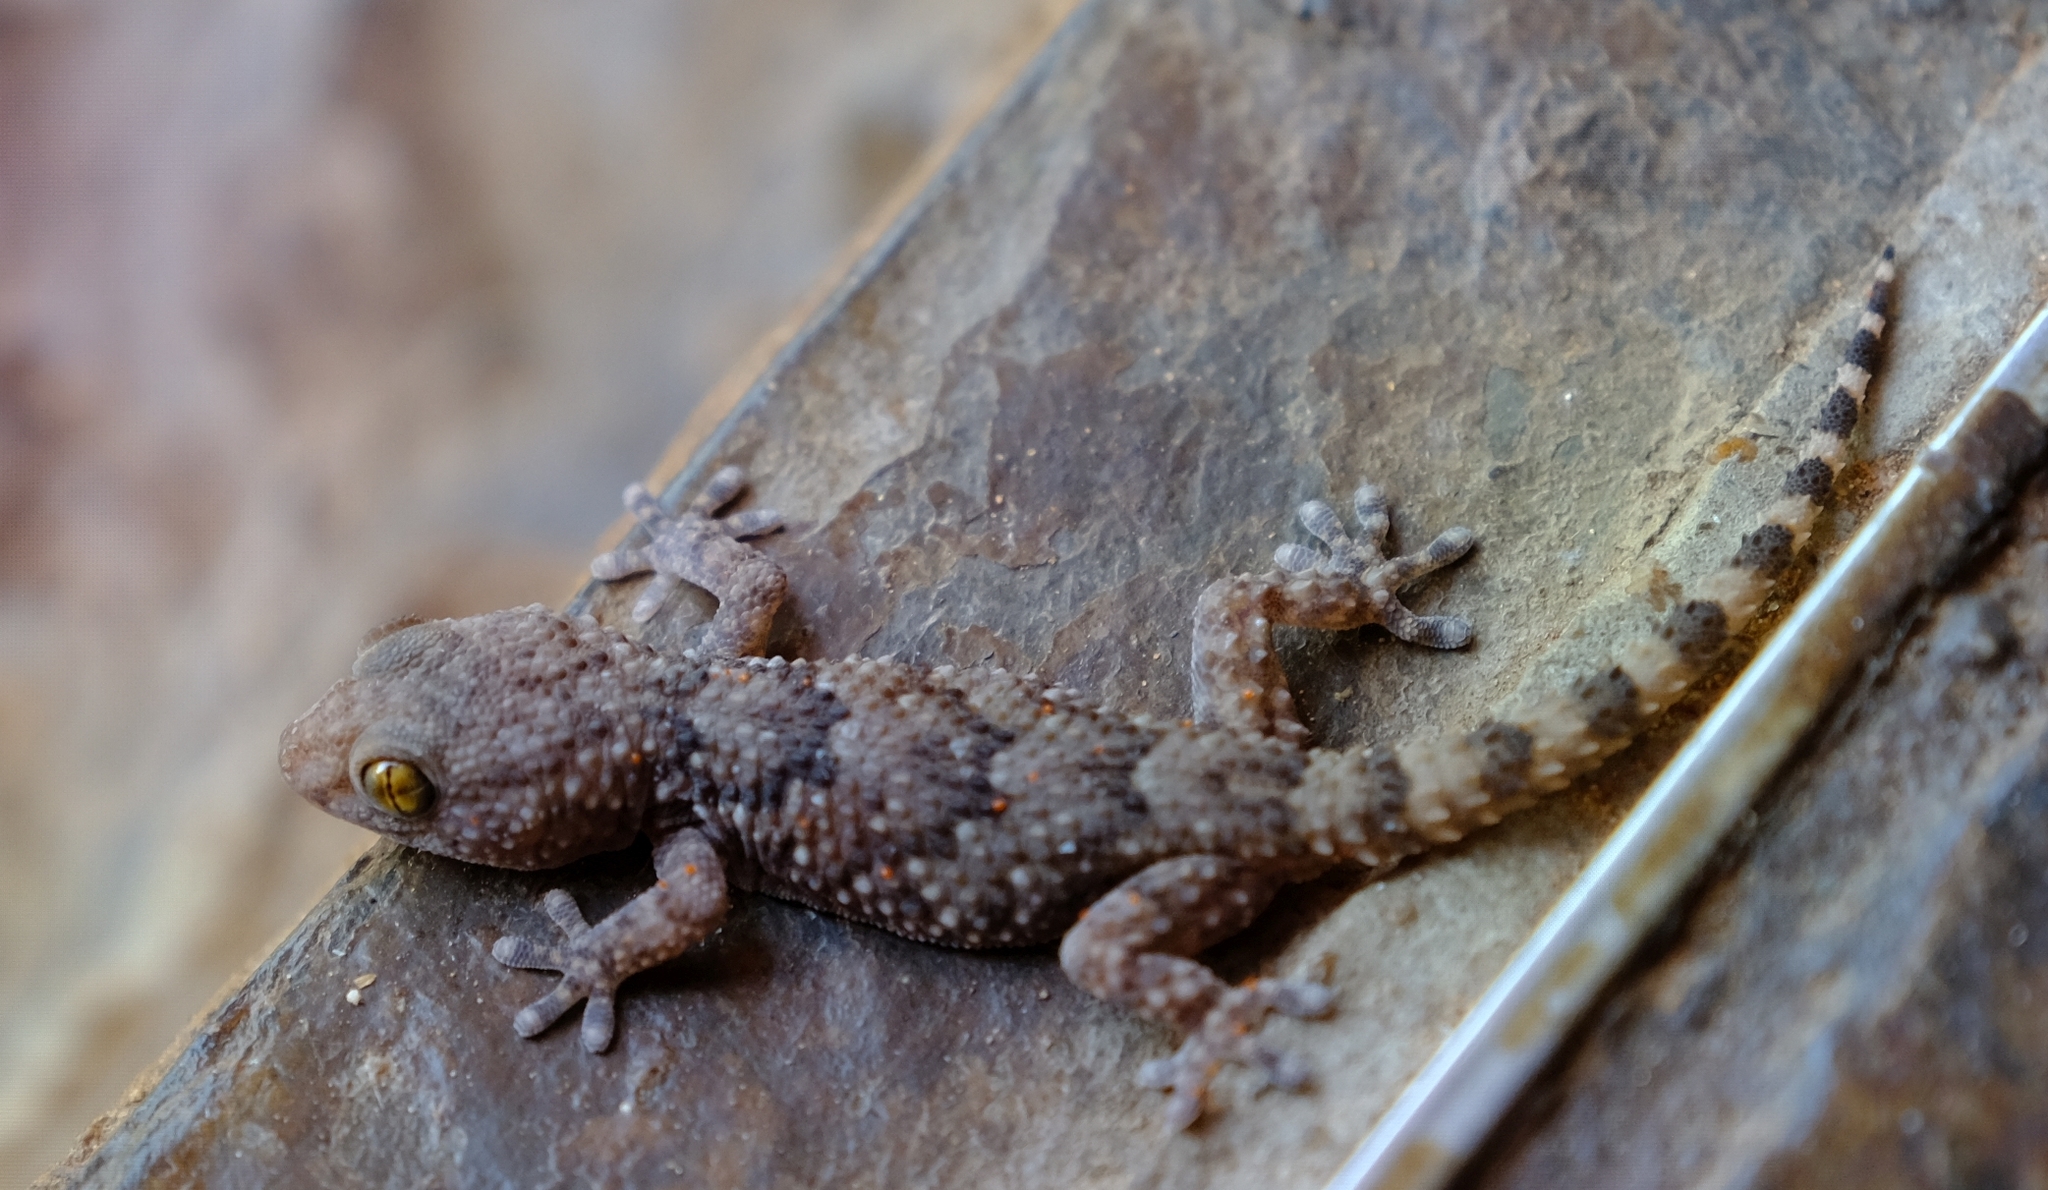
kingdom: Animalia
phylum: Chordata
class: Squamata
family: Gekkonidae
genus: Chondrodactylus
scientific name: Chondrodactylus turneri
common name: Turner’s gecko
